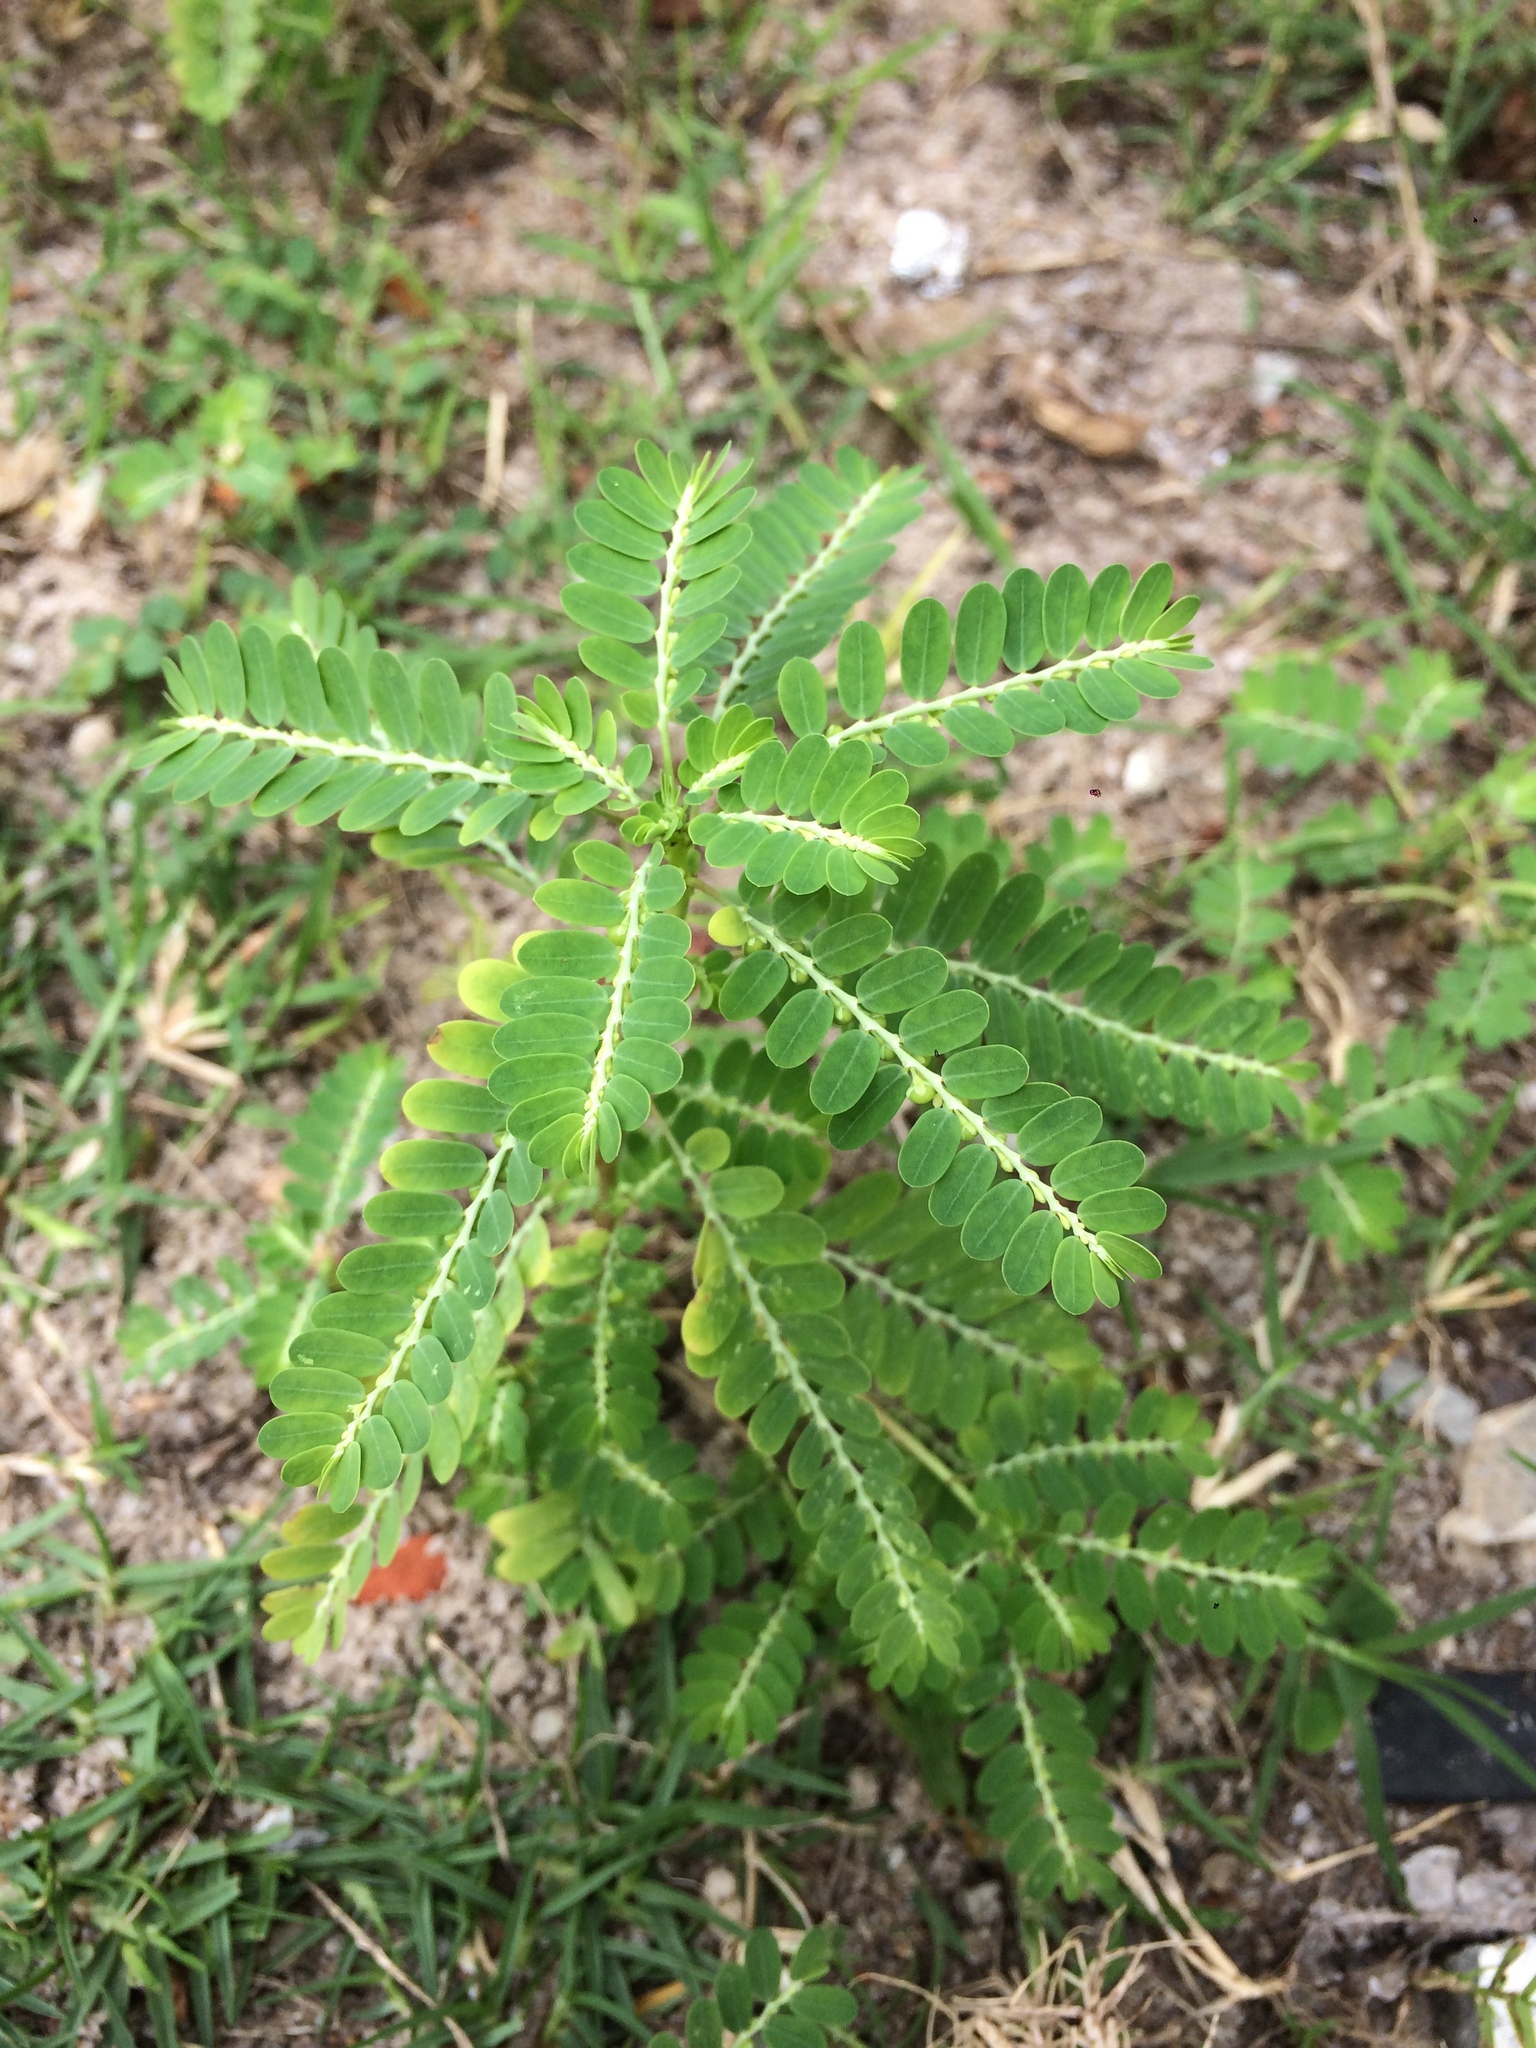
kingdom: Plantae
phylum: Tracheophyta
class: Magnoliopsida
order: Malpighiales
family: Phyllanthaceae
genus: Phyllanthus
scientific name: Phyllanthus amarus
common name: Carry me seed
